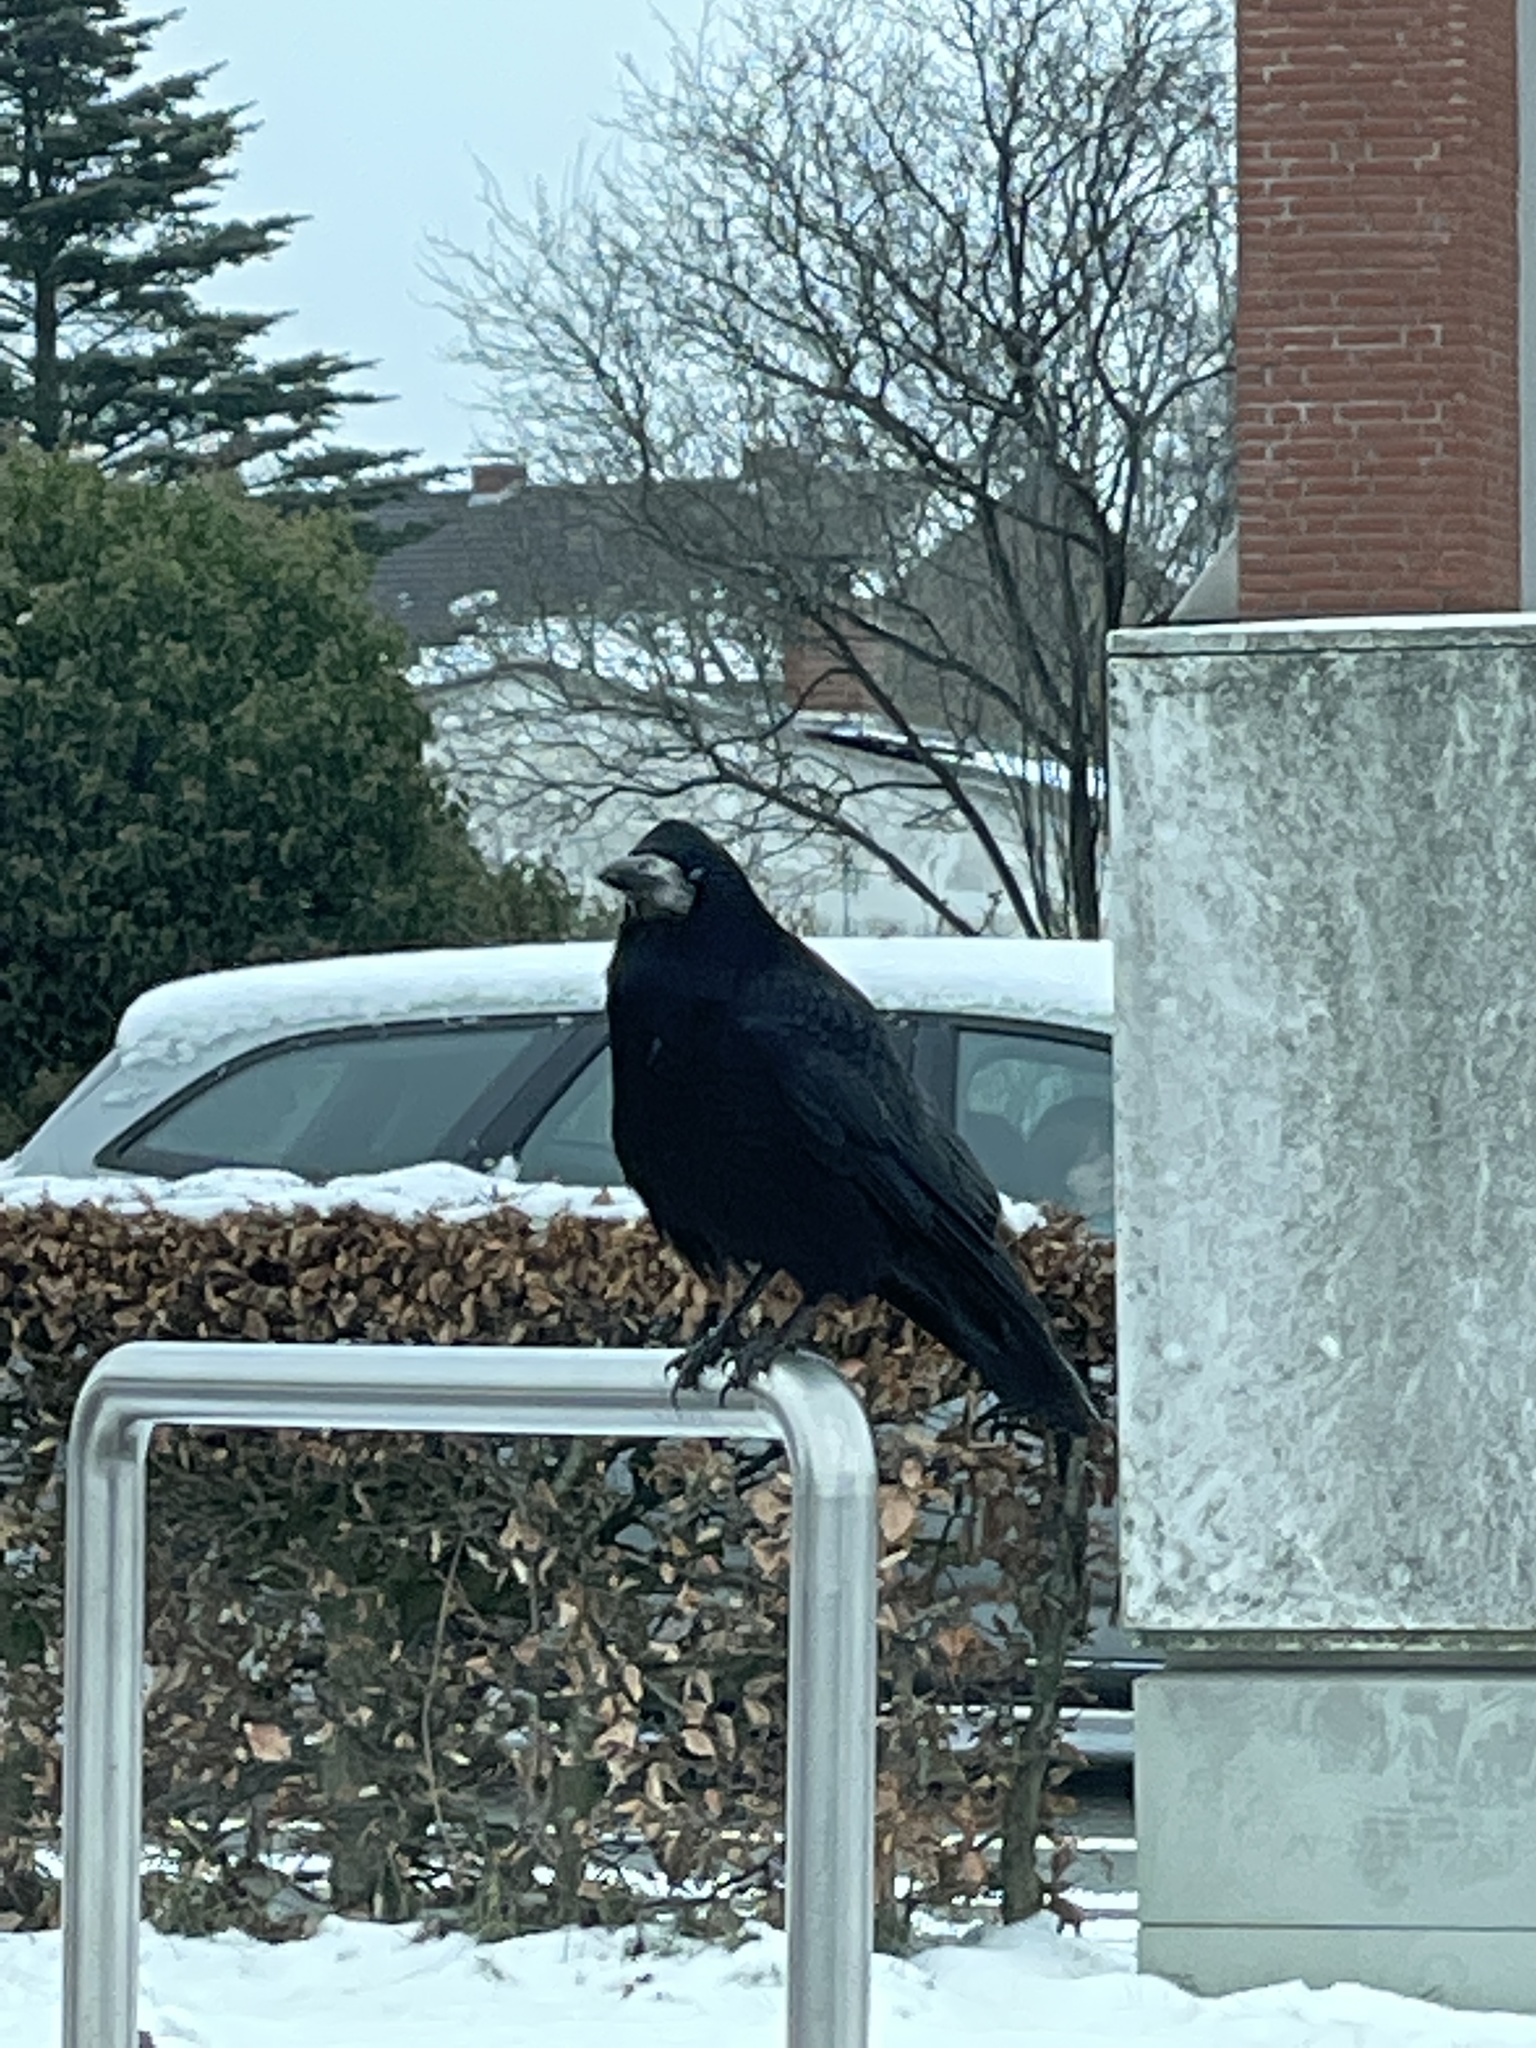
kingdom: Animalia
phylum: Chordata
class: Aves
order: Passeriformes
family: Corvidae
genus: Corvus
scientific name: Corvus frugilegus
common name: Rook
